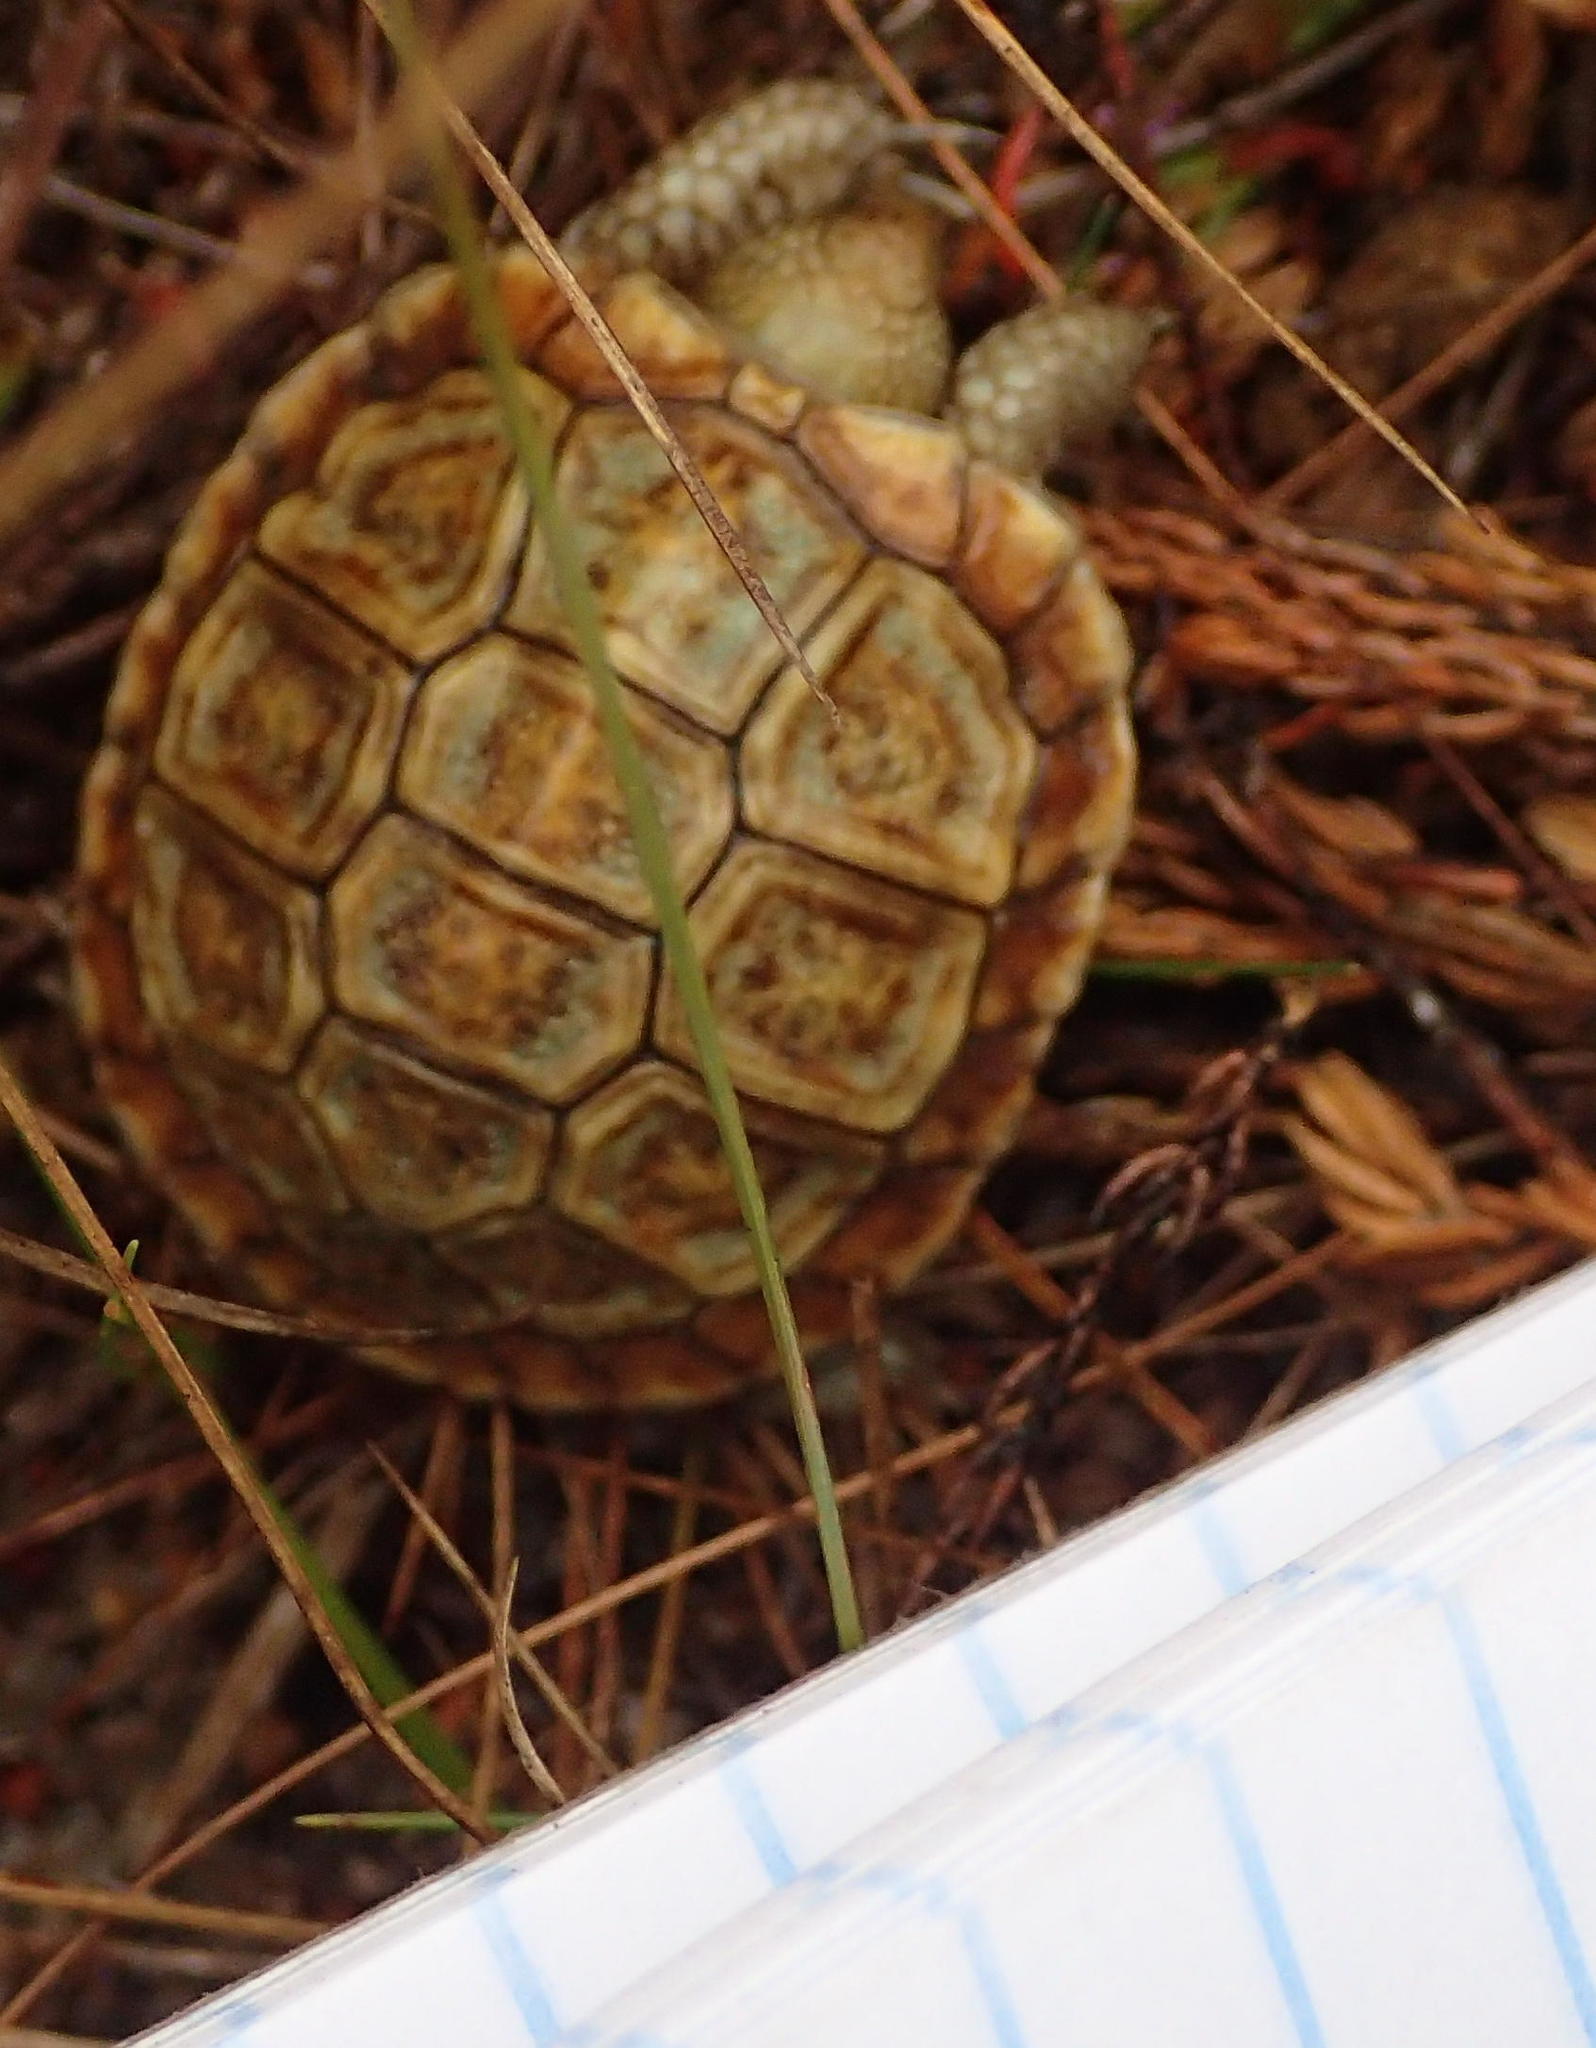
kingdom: Animalia
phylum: Chordata
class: Testudines
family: Testudinidae
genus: Homopus
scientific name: Homopus areolatus
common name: Parrot-beaked tortoise
